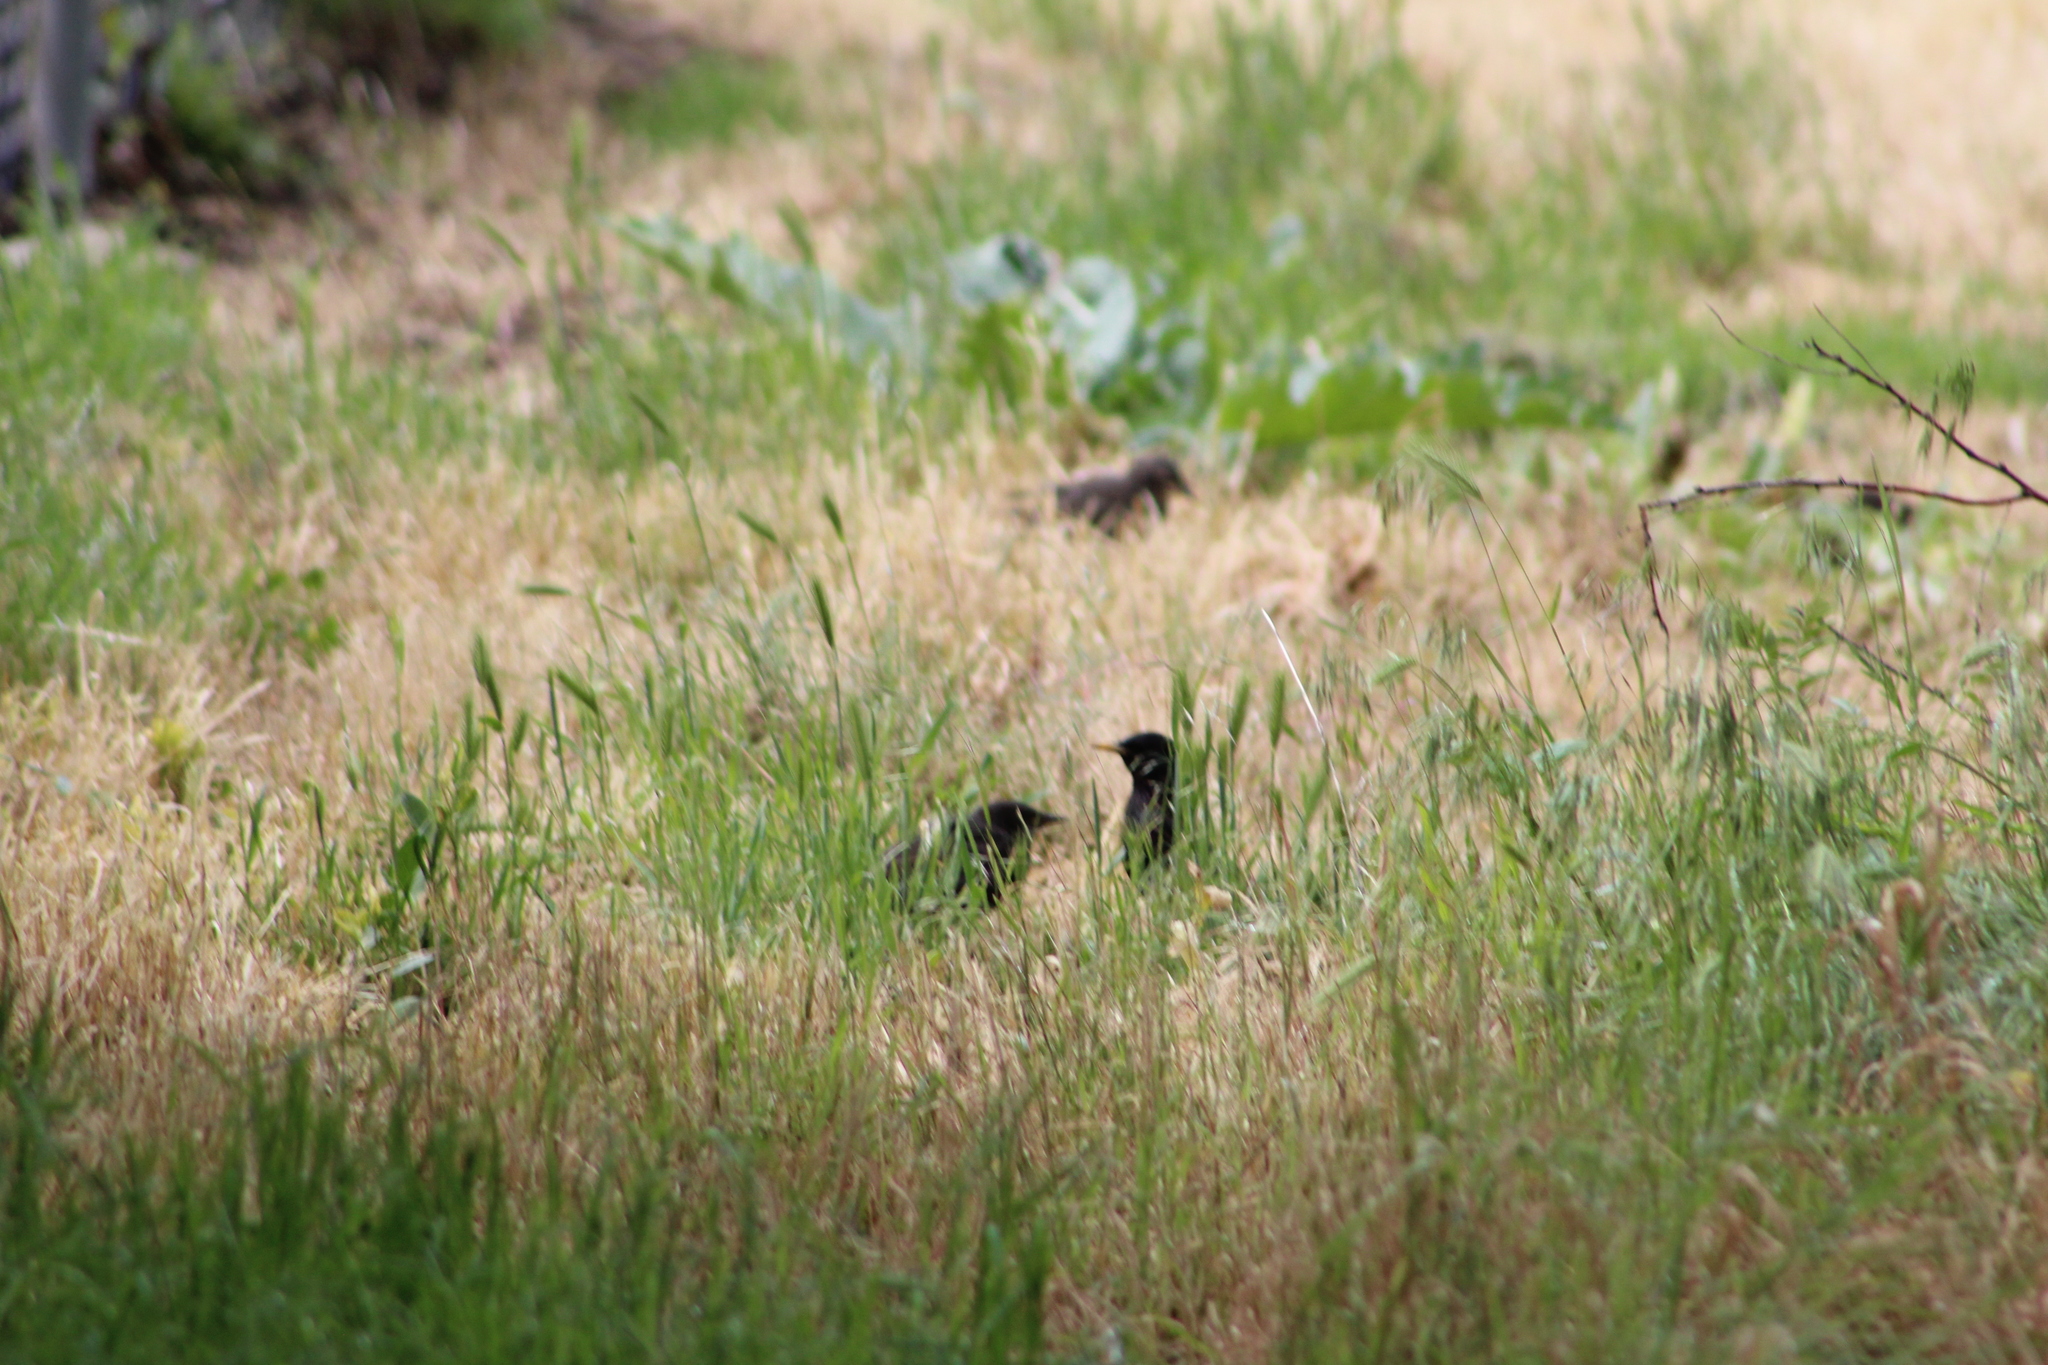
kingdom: Animalia
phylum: Chordata
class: Aves
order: Passeriformes
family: Sturnidae
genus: Sturnus
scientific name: Sturnus vulgaris
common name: Common starling
